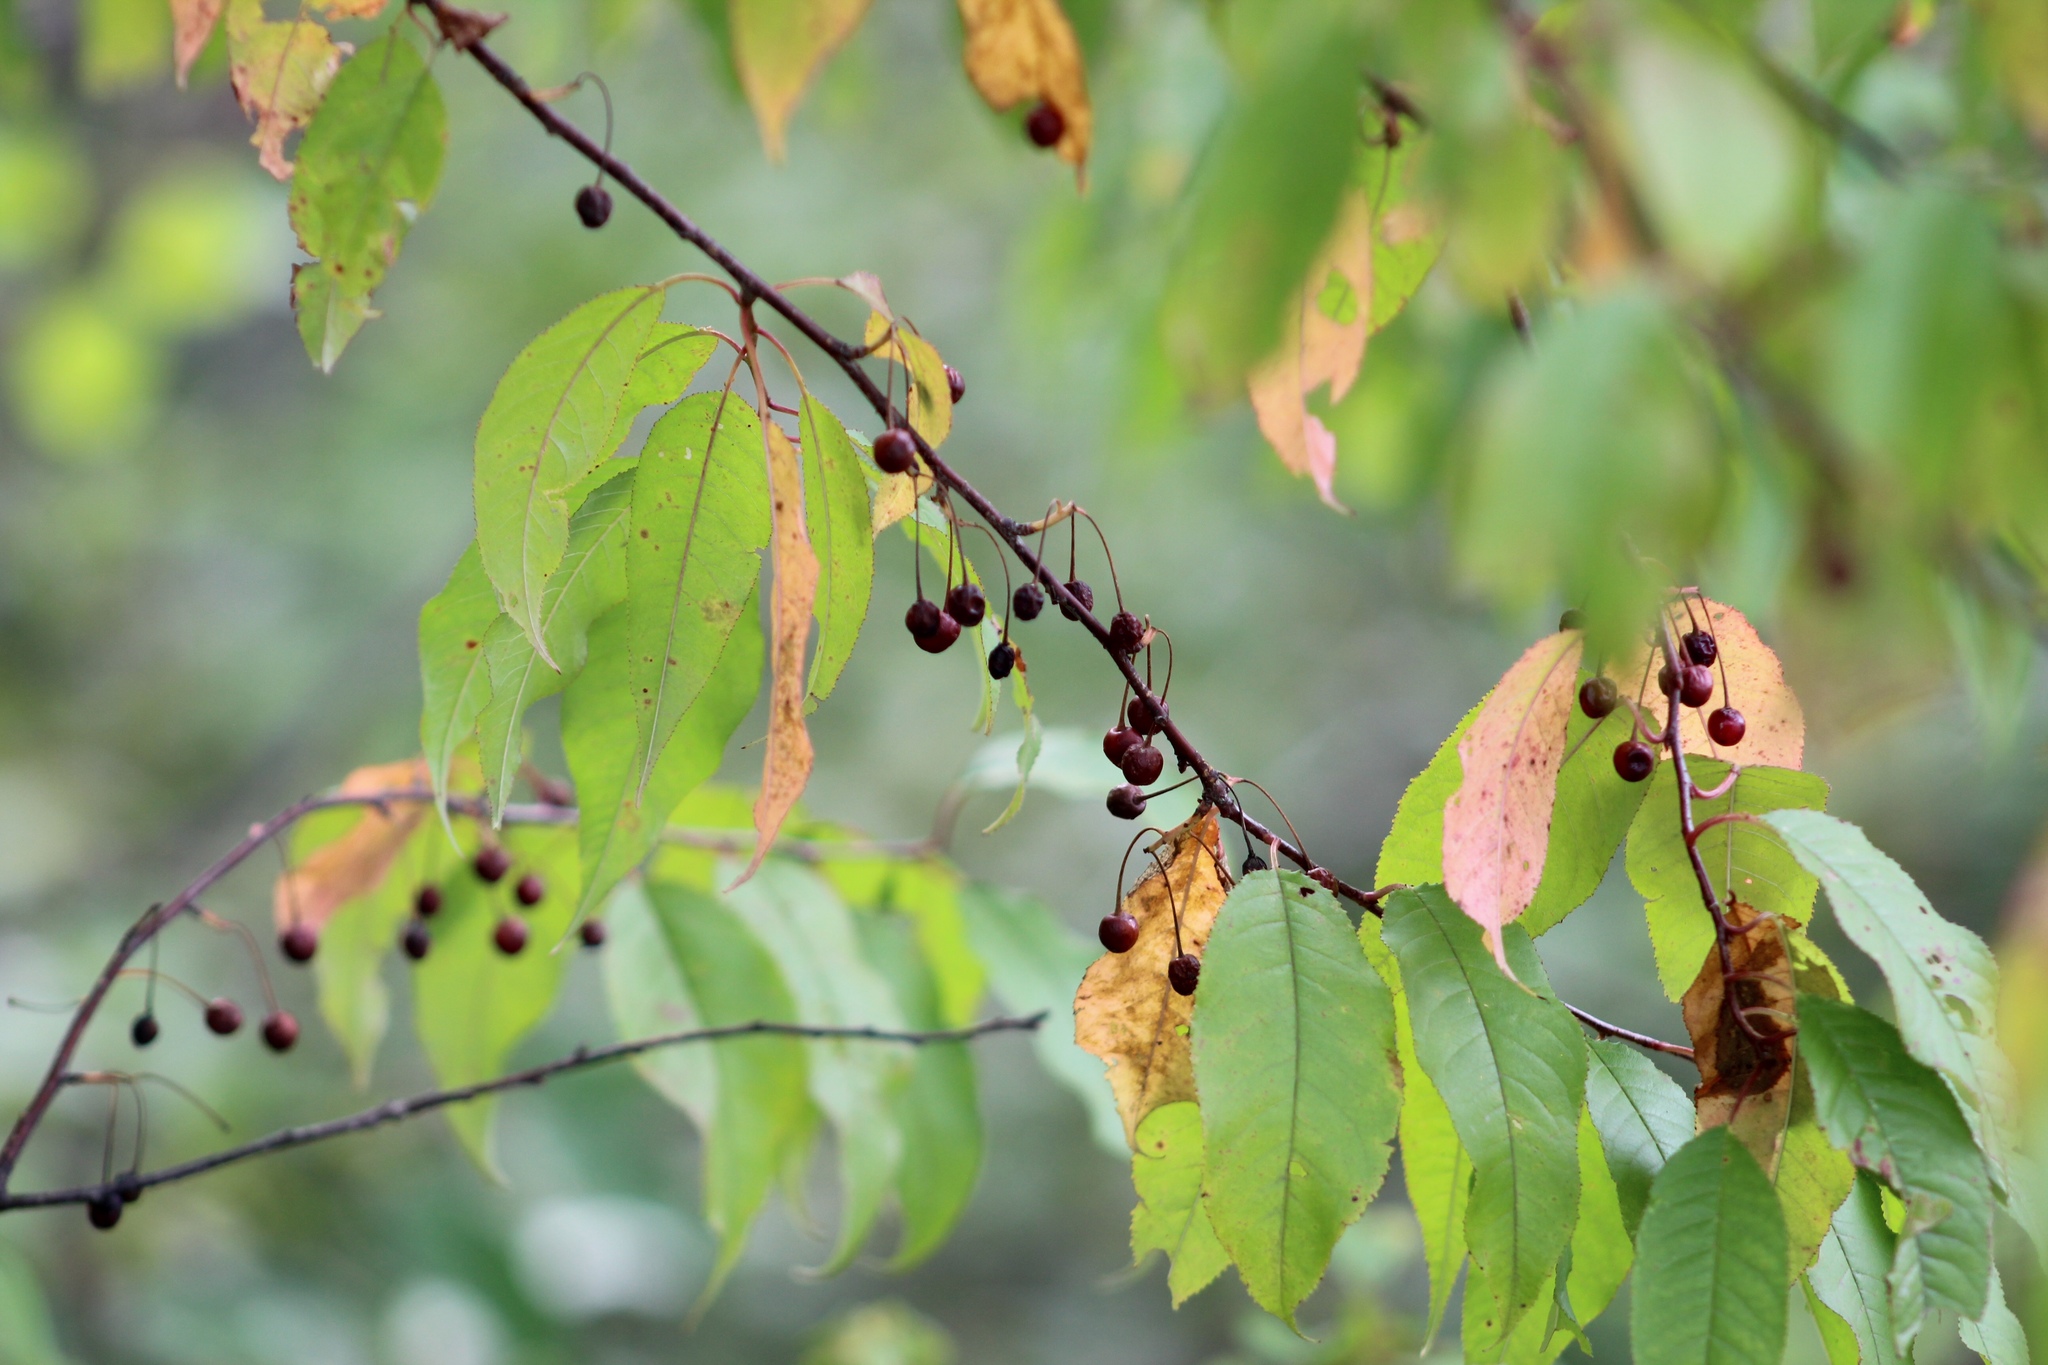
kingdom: Plantae
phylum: Tracheophyta
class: Magnoliopsida
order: Rosales
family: Rosaceae
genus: Prunus
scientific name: Prunus pensylvanica
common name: Pin cherry
